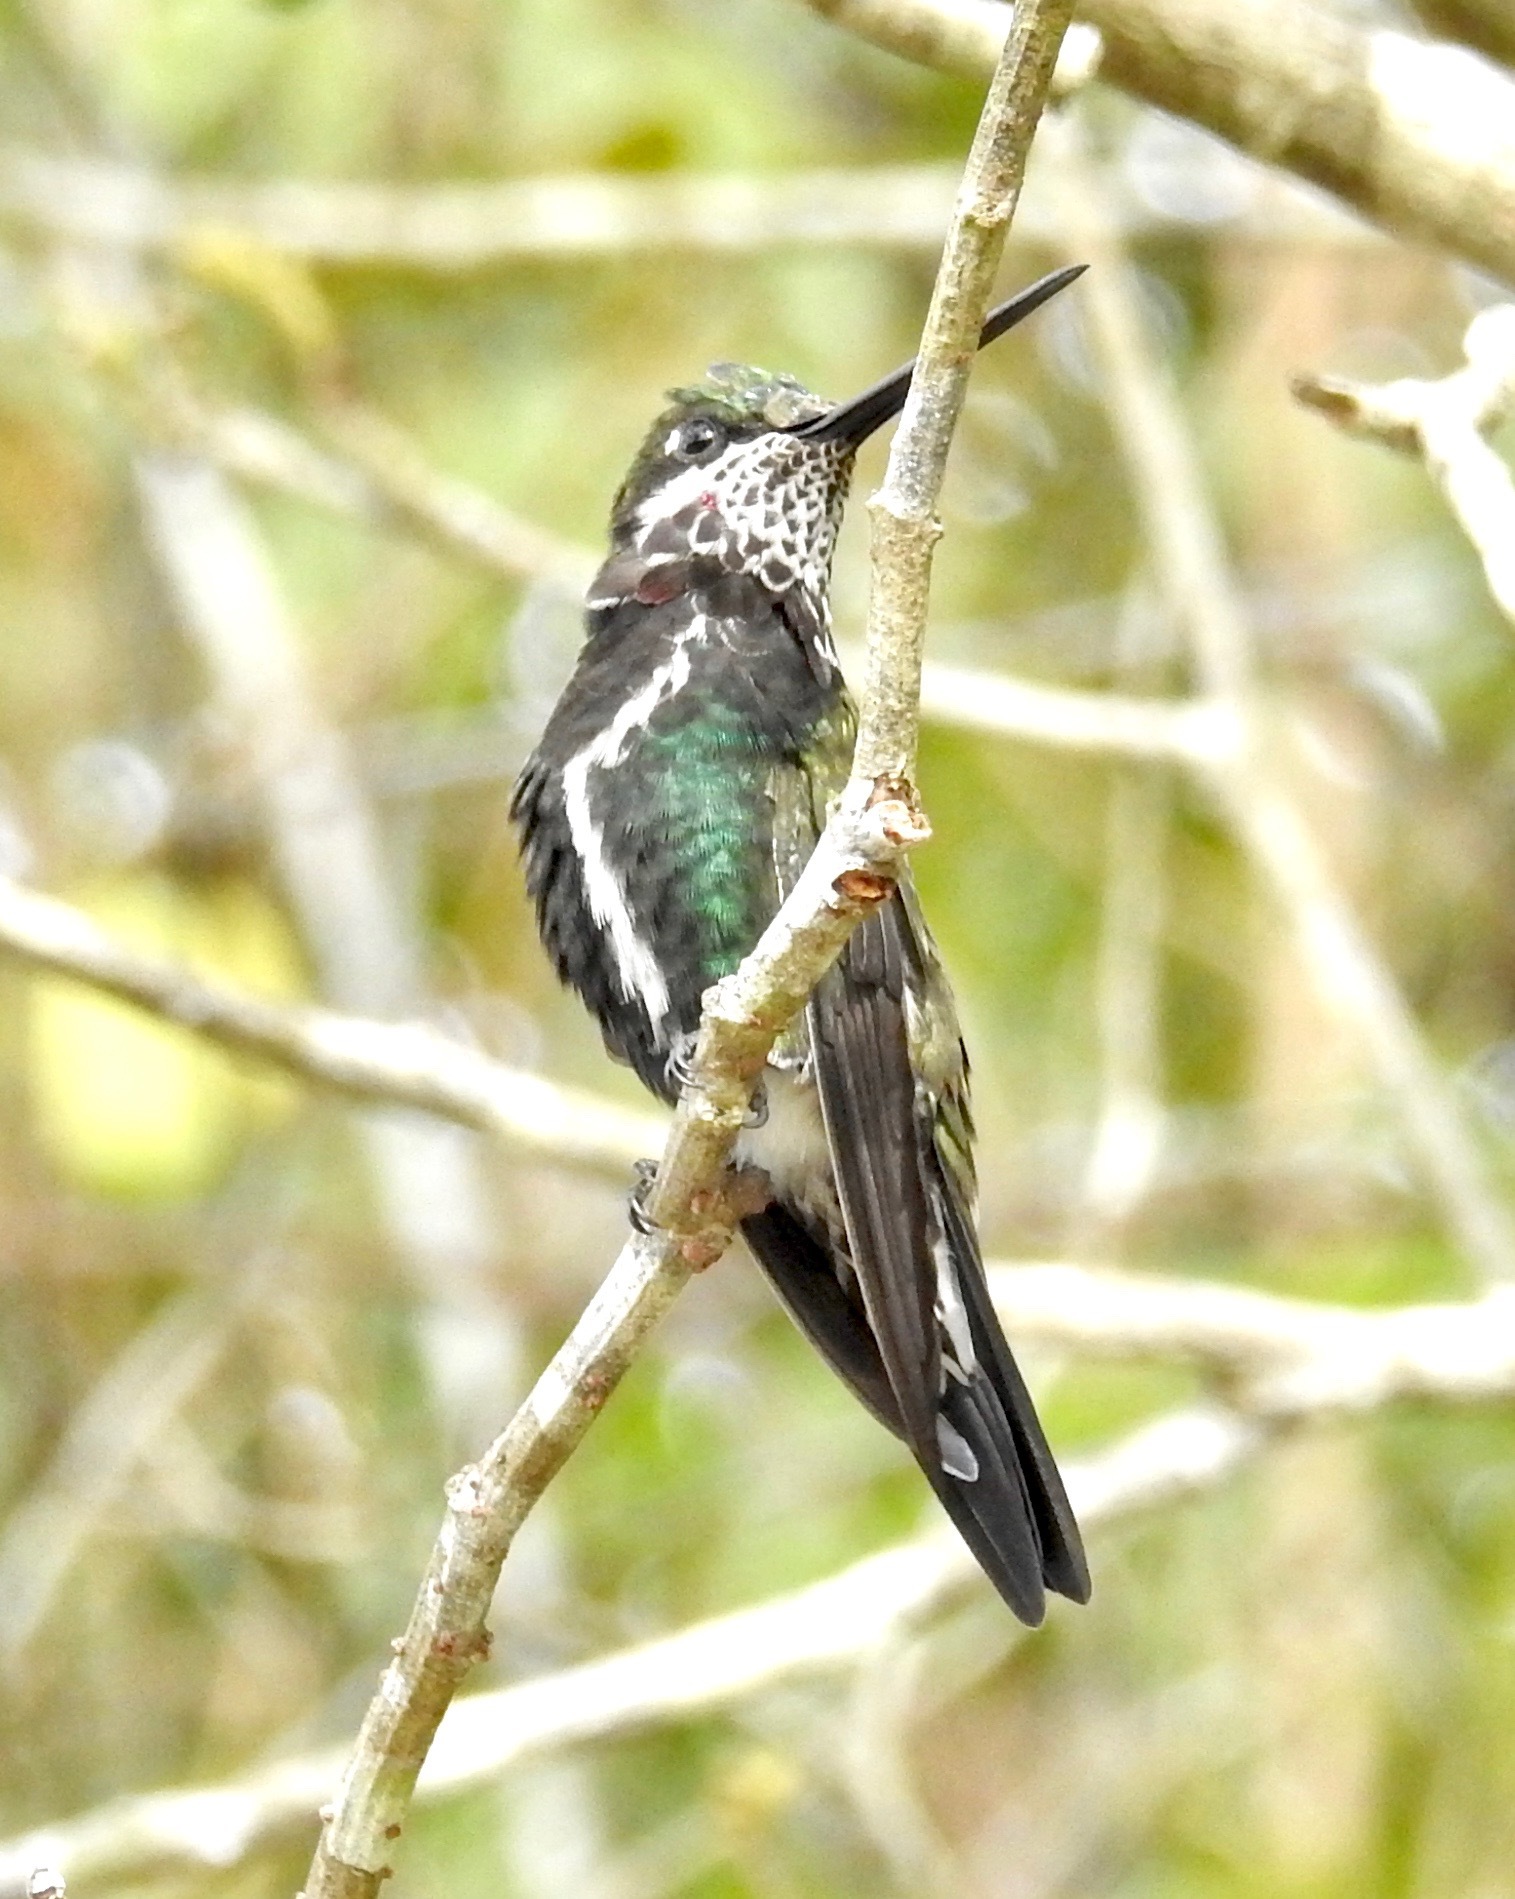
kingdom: Animalia
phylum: Chordata
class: Aves
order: Apodiformes
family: Trochilidae
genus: Heliomaster
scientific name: Heliomaster squamosus
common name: Stripe-breasted starthroat
